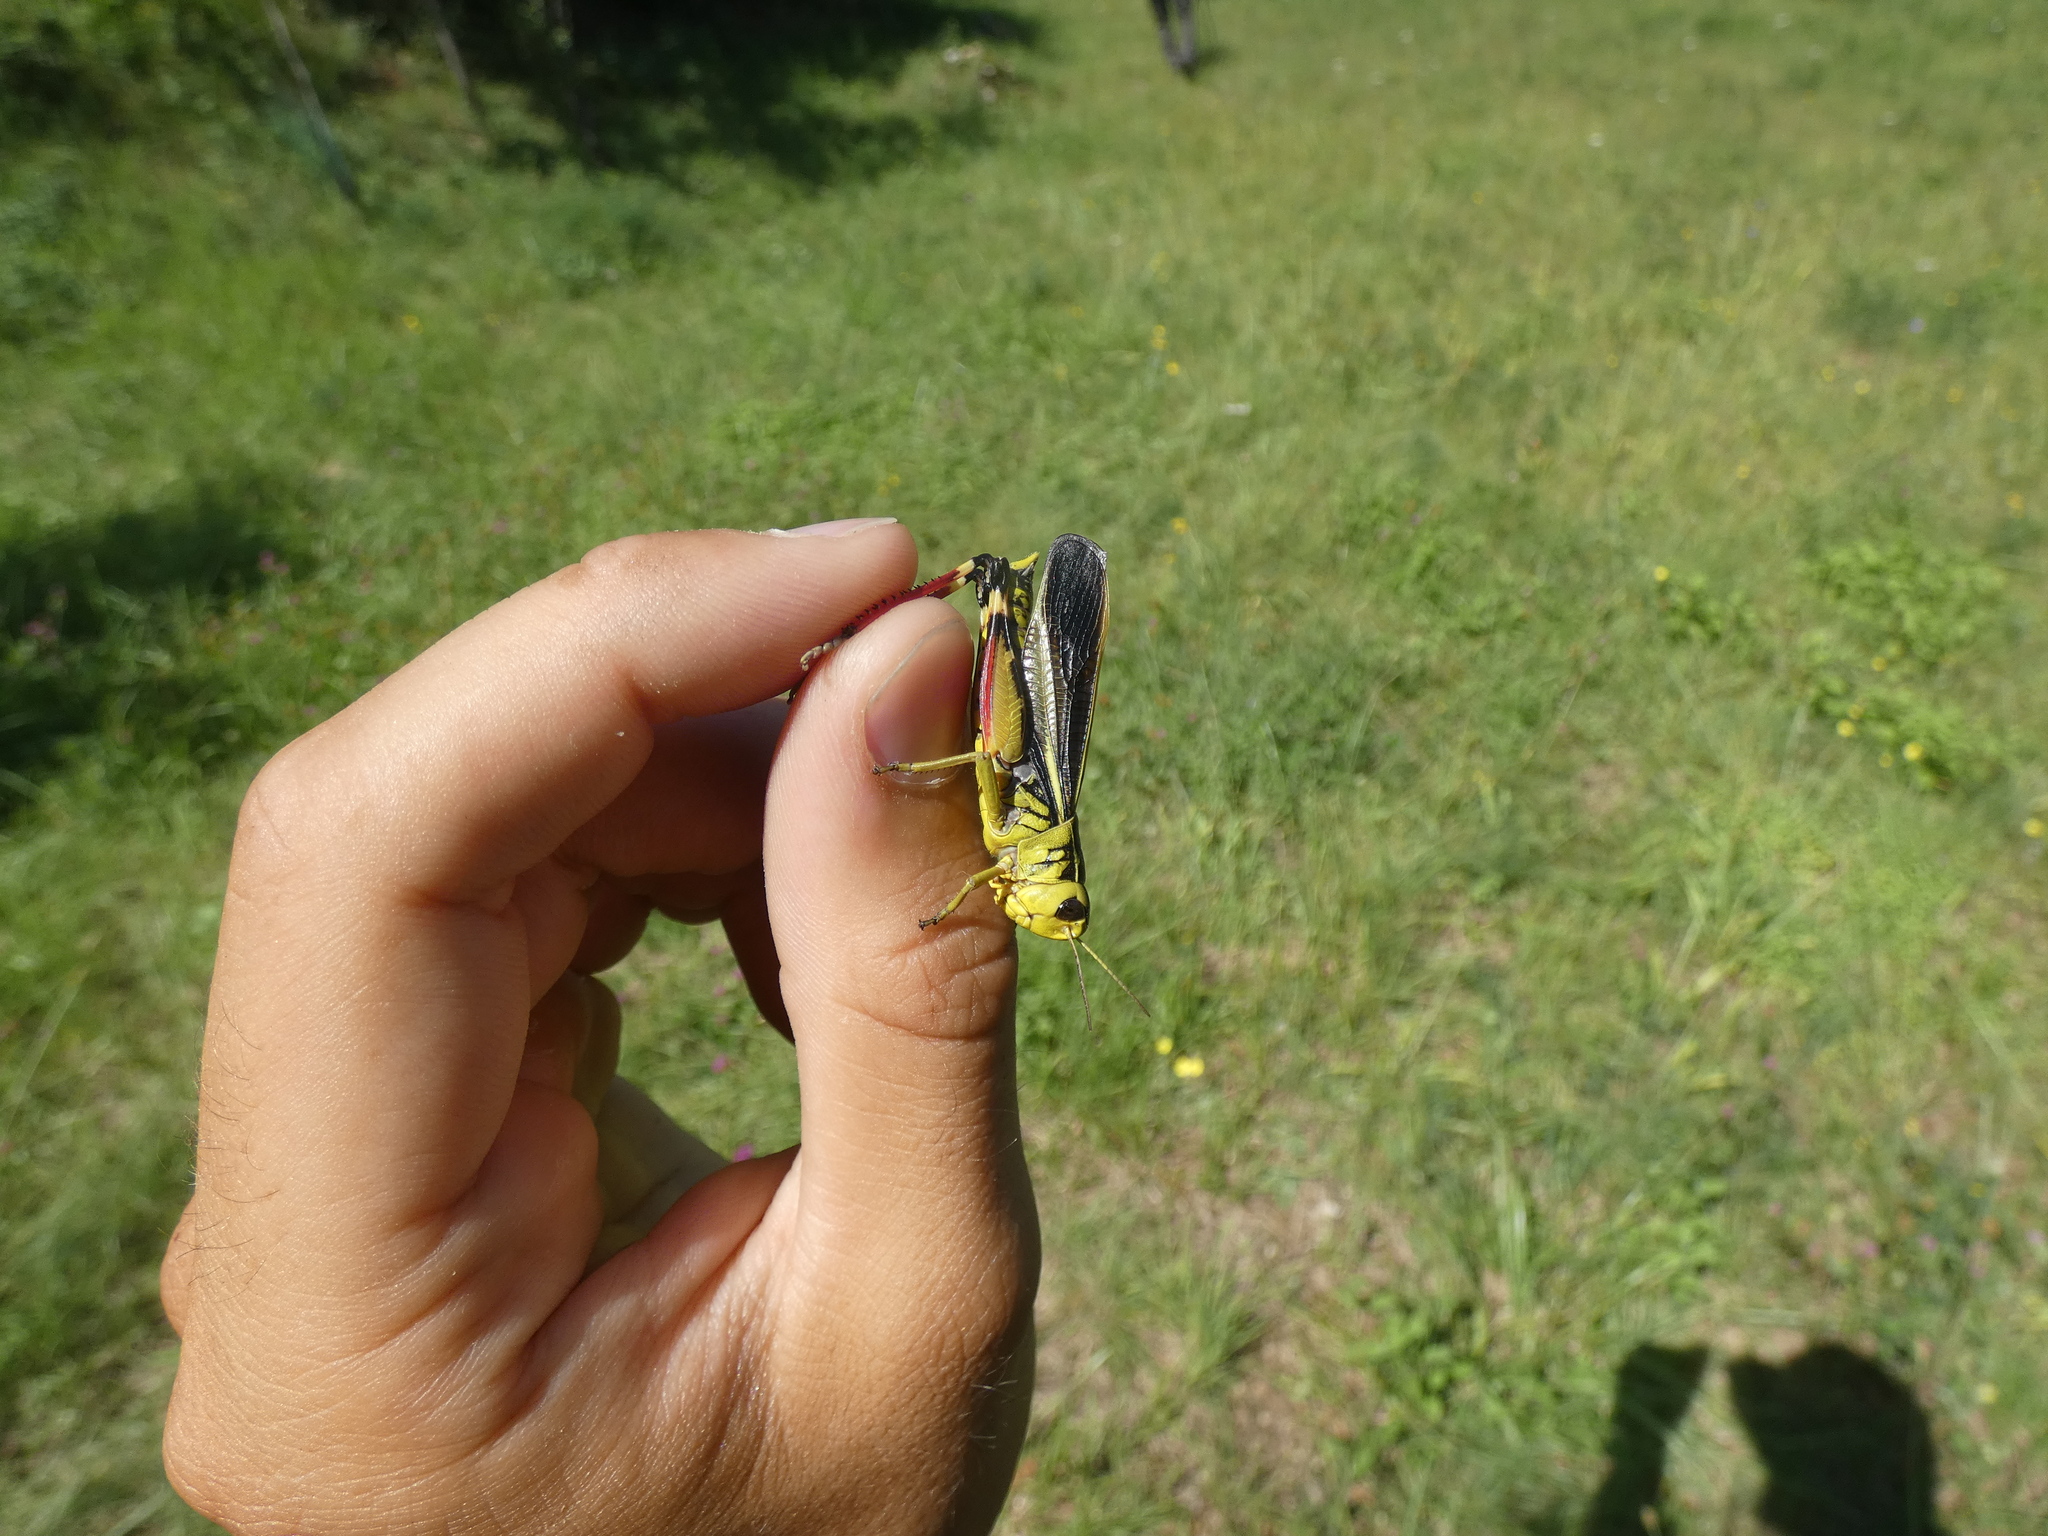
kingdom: Animalia
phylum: Arthropoda
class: Insecta
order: Orthoptera
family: Acrididae
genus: Arcyptera
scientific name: Arcyptera fusca
